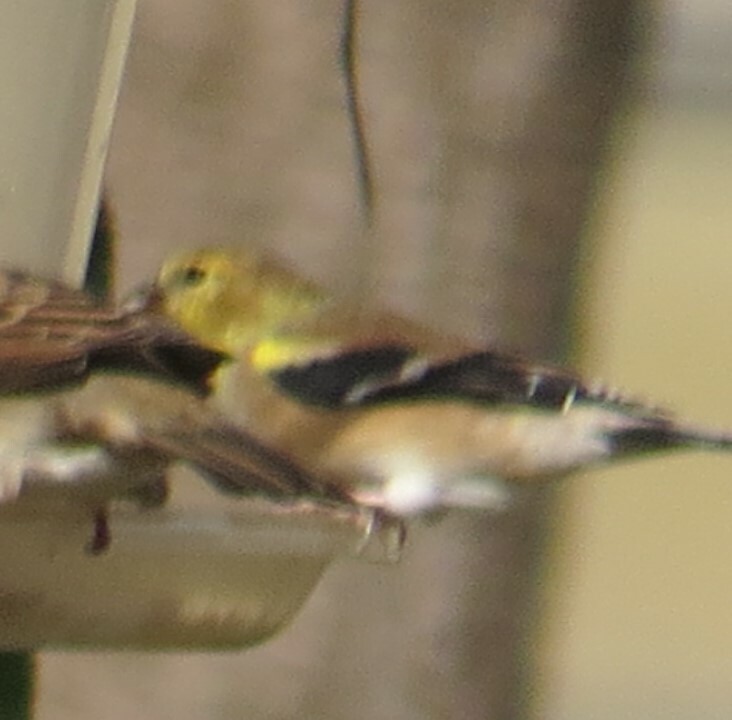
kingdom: Animalia
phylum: Chordata
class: Aves
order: Passeriformes
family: Fringillidae
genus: Spinus
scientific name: Spinus tristis
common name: American goldfinch
